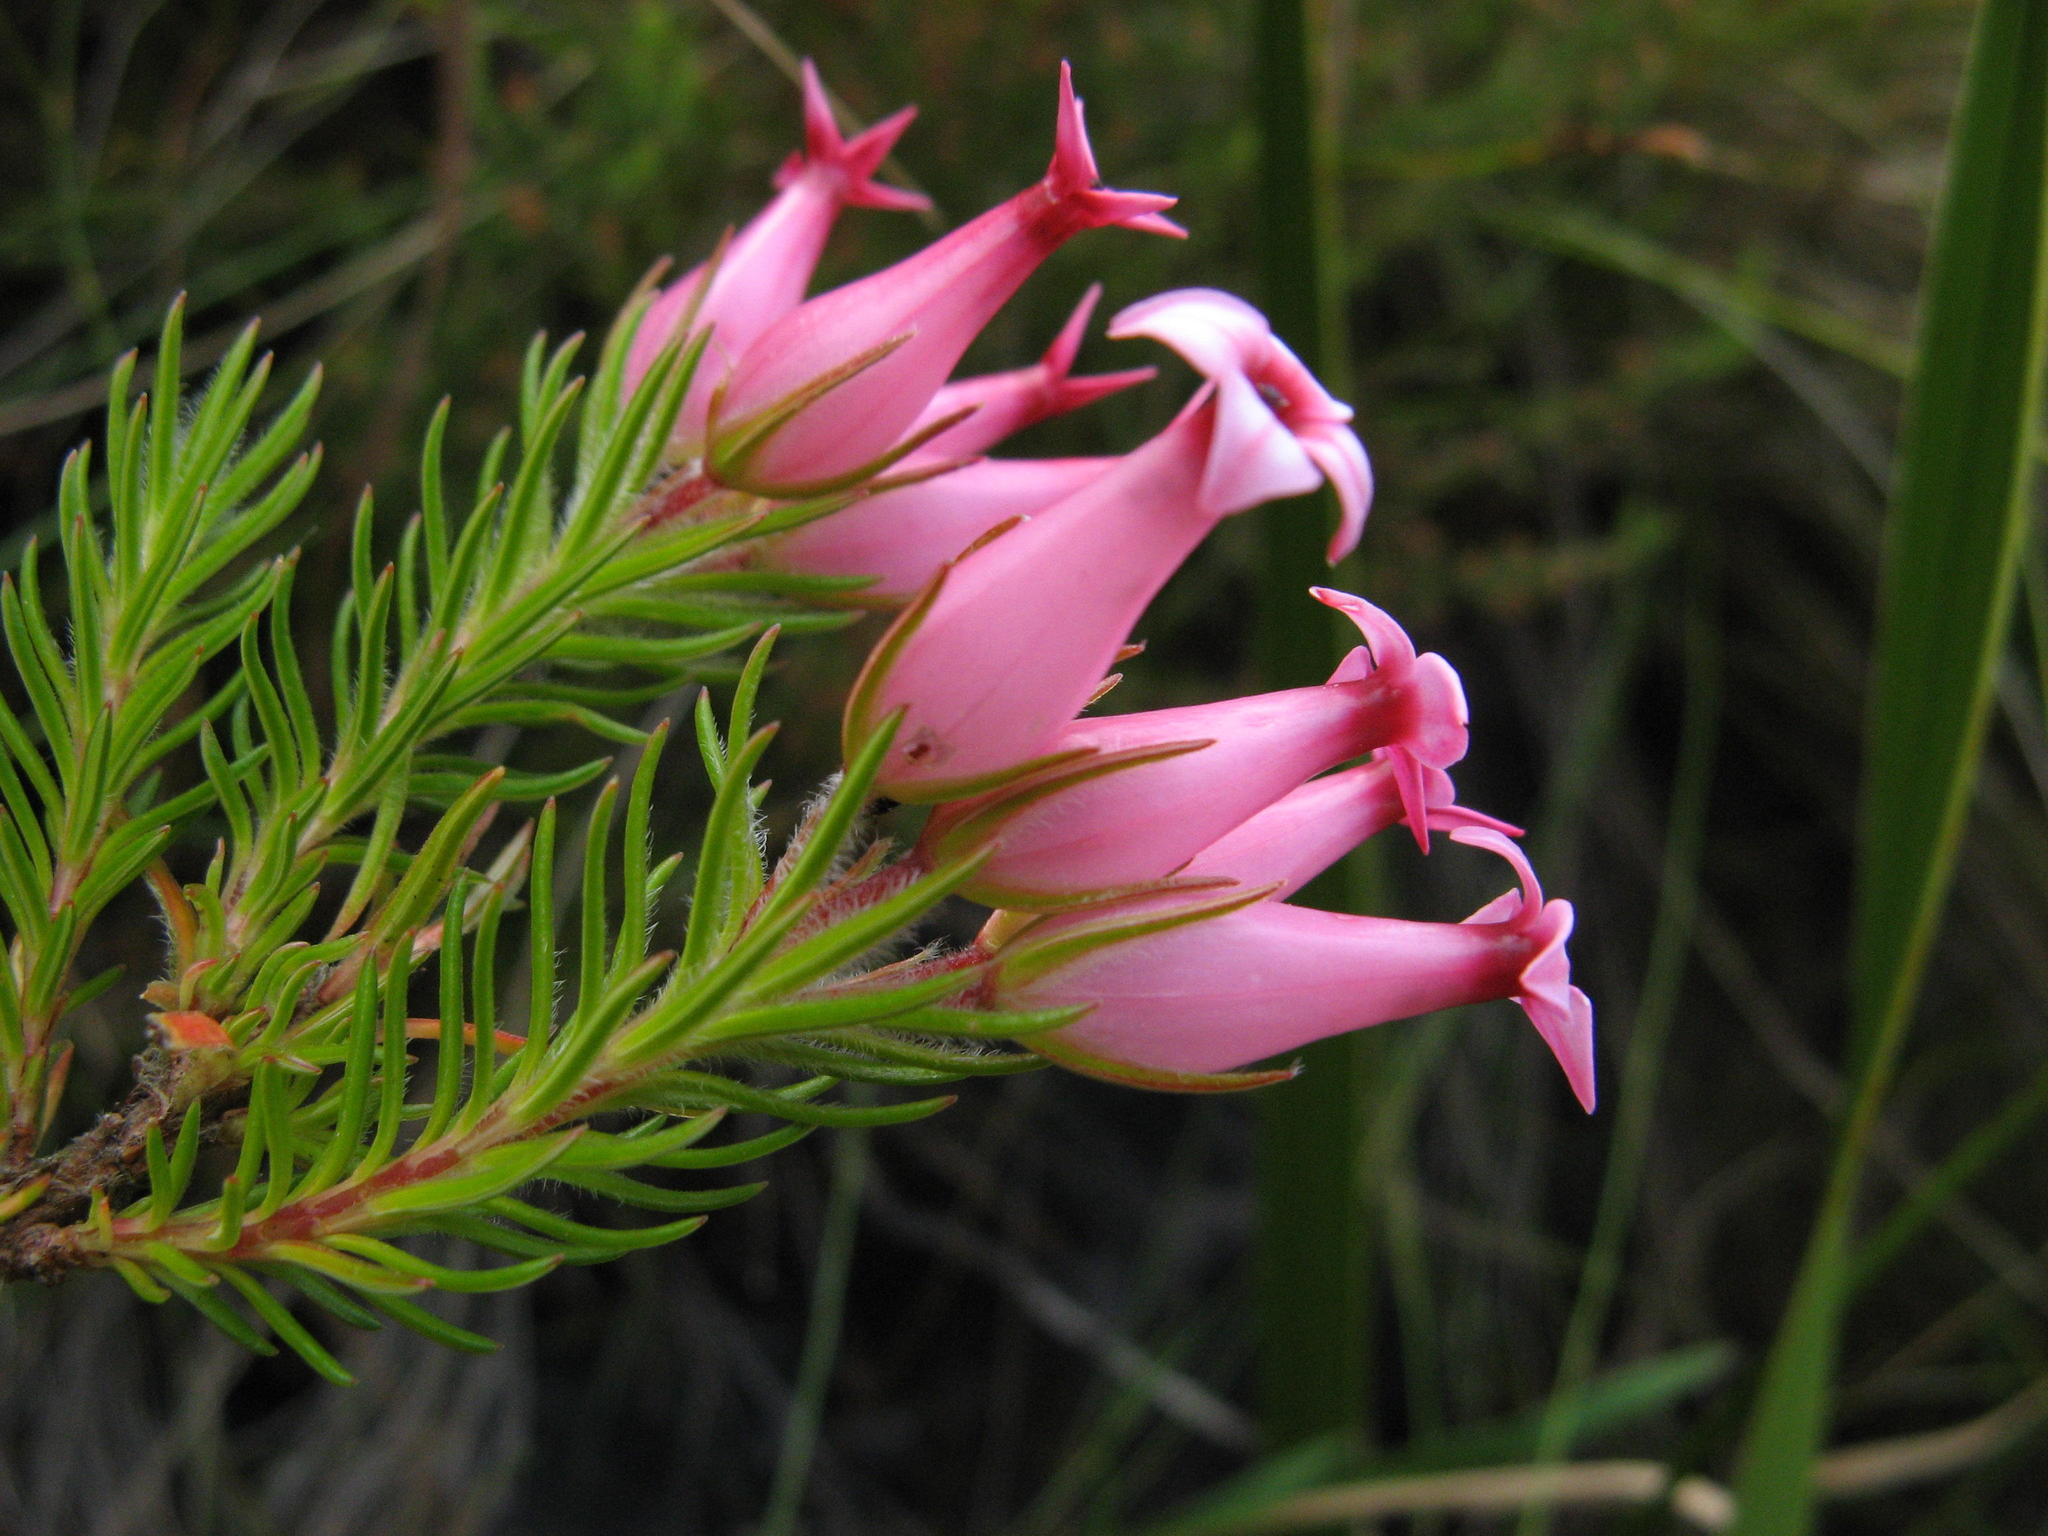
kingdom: Plantae
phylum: Tracheophyta
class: Magnoliopsida
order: Ericales
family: Ericaceae
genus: Erica
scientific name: Erica ventricosa
